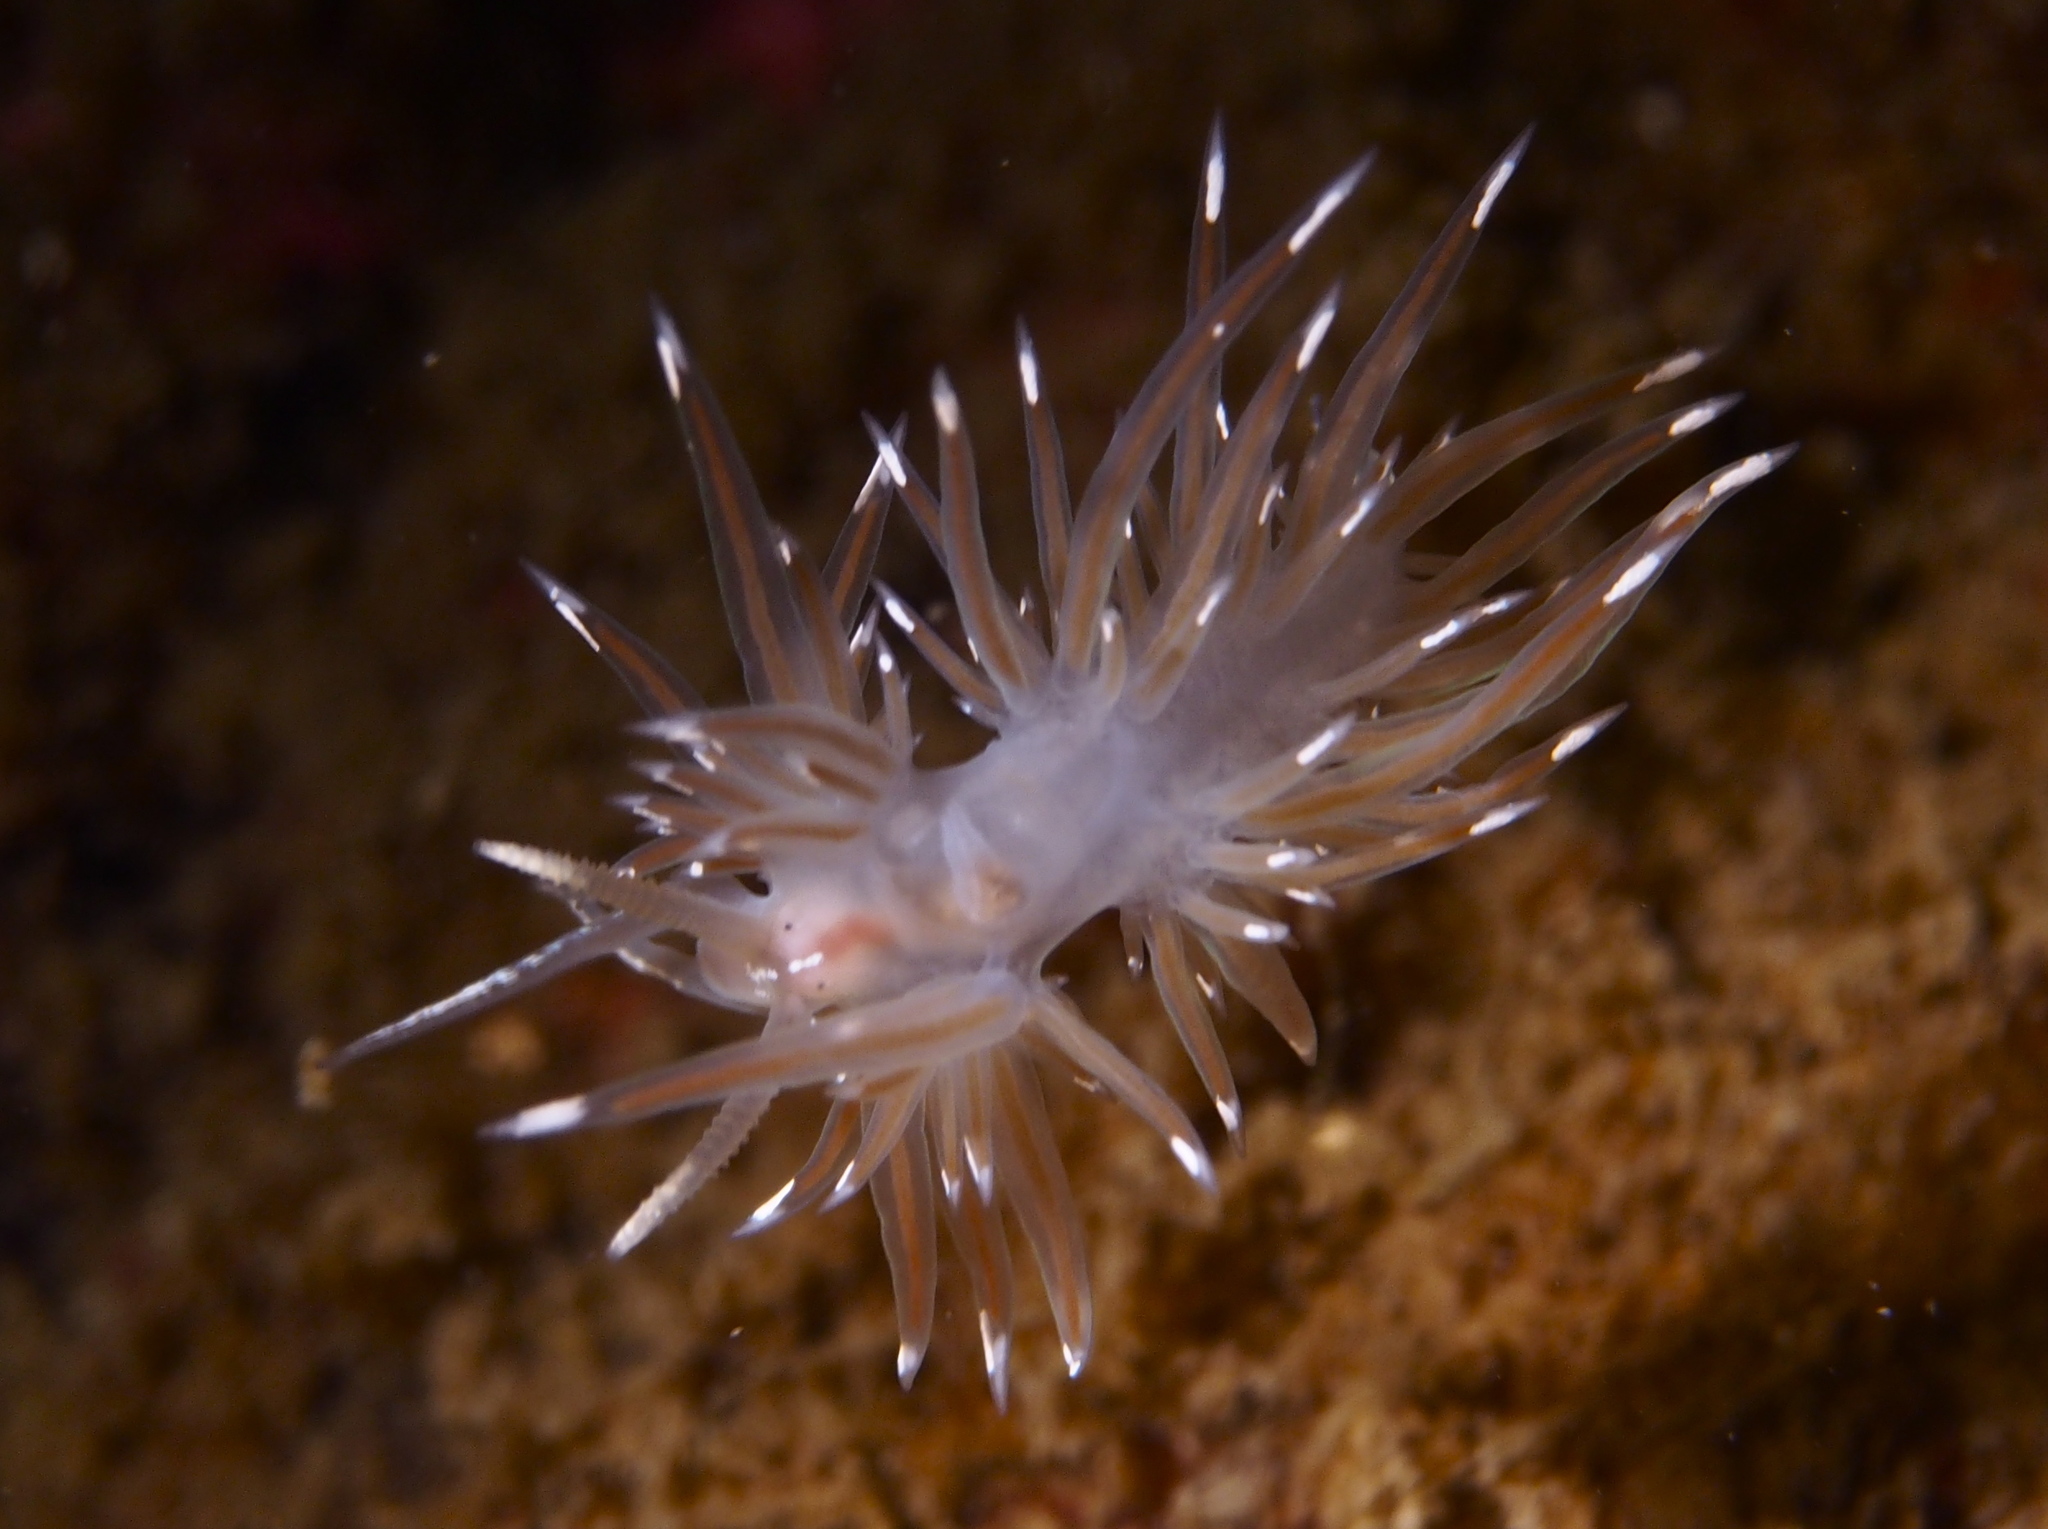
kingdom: Animalia
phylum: Mollusca
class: Gastropoda
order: Nudibranchia
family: Facelinidae
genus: Facelina
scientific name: Facelina bostoniensis
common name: Boston facelina
